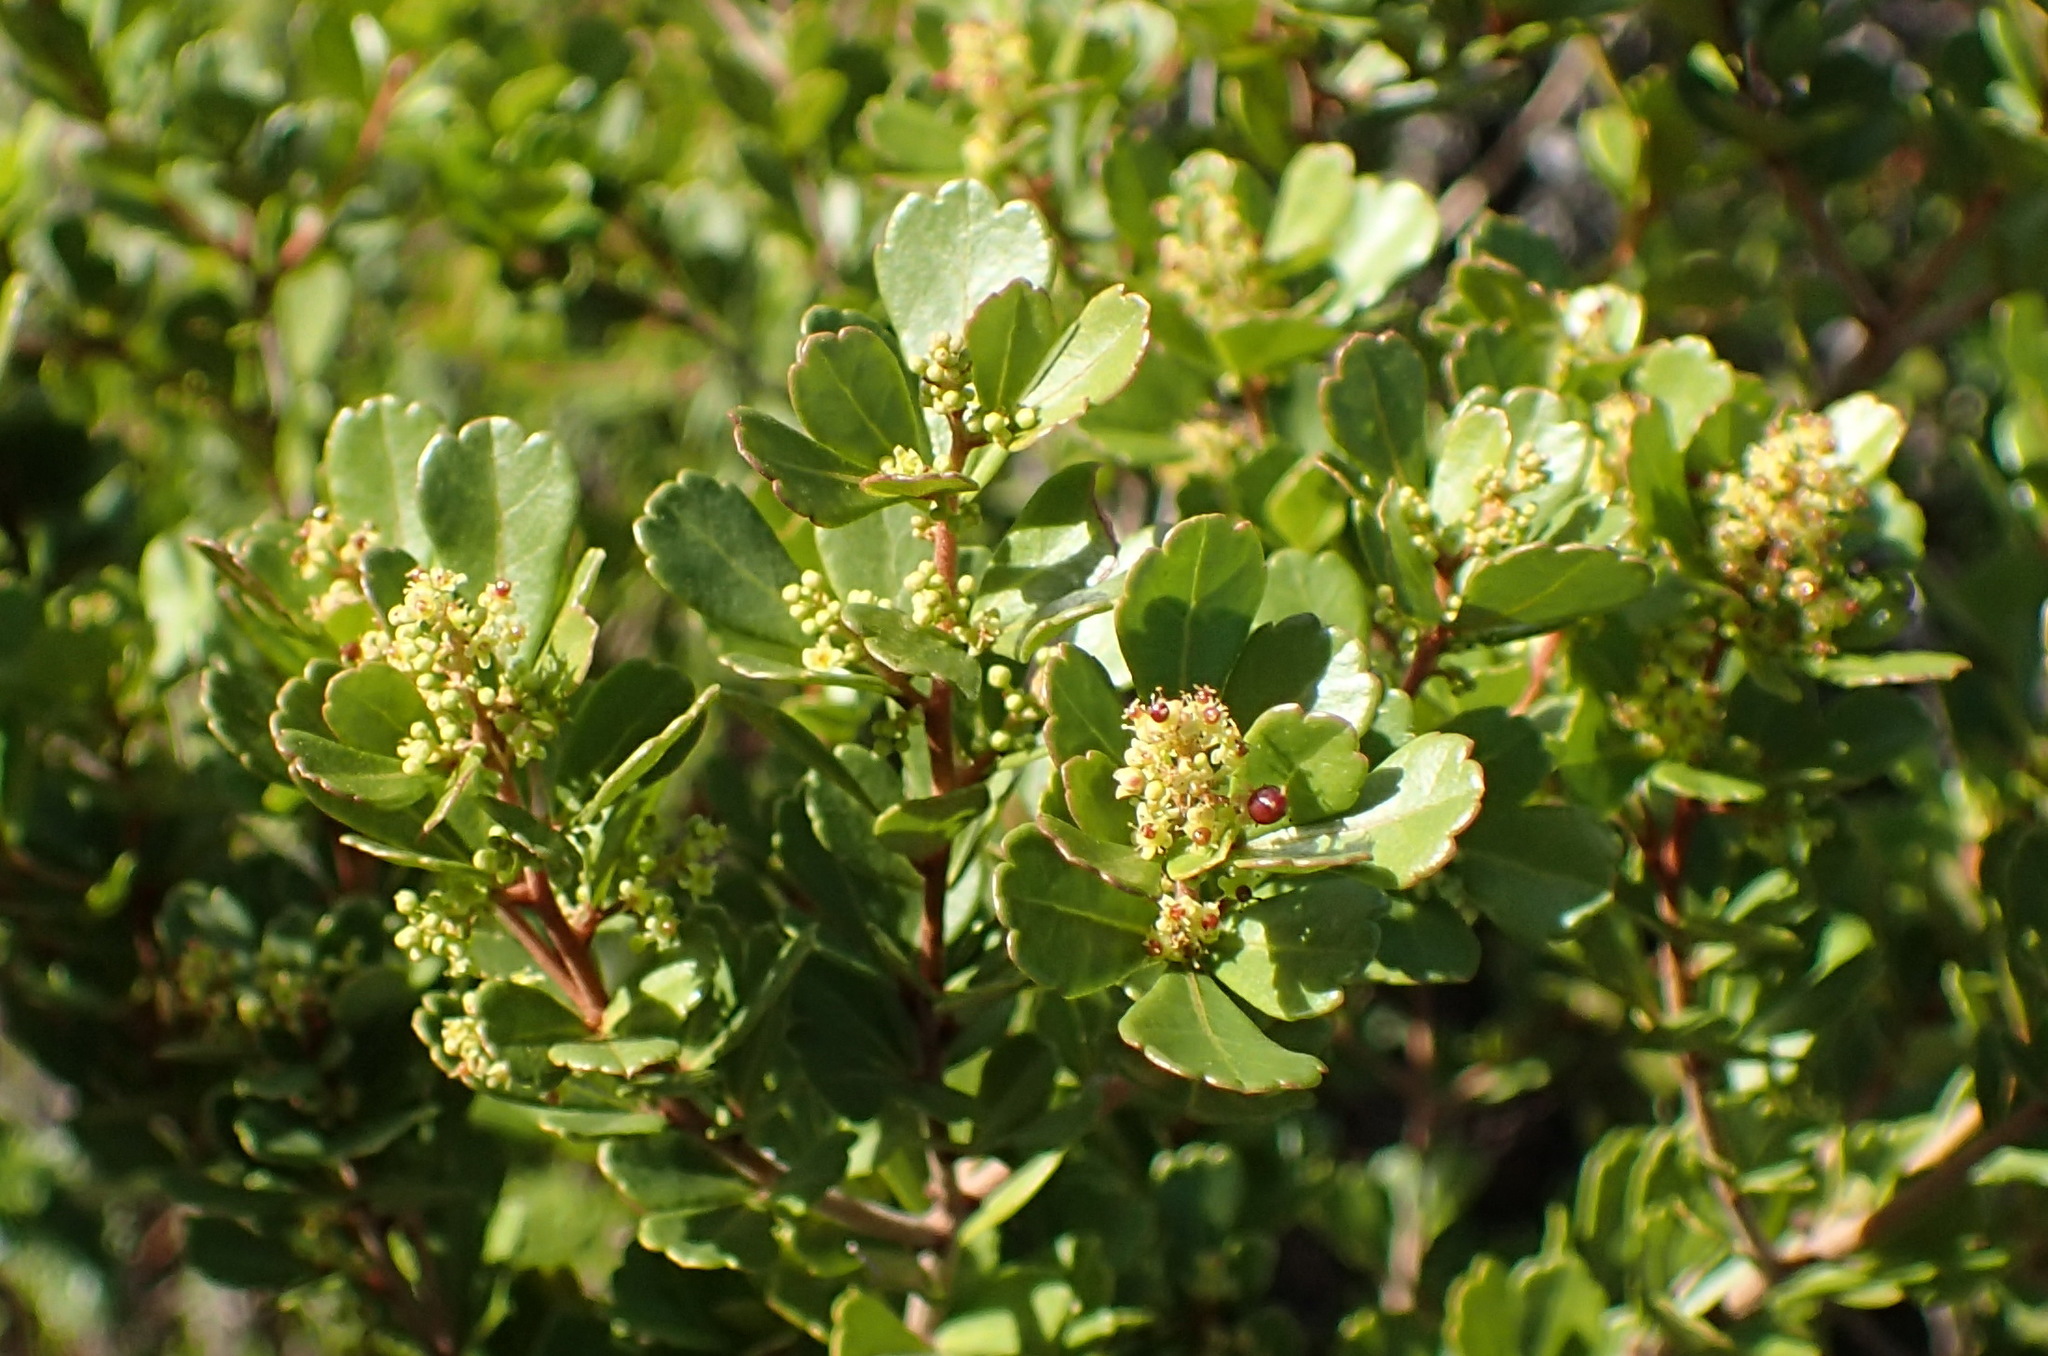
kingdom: Plantae
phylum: Tracheophyta
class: Magnoliopsida
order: Sapindales
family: Anacardiaceae
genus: Searsia
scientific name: Searsia crenata
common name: Crowberry
